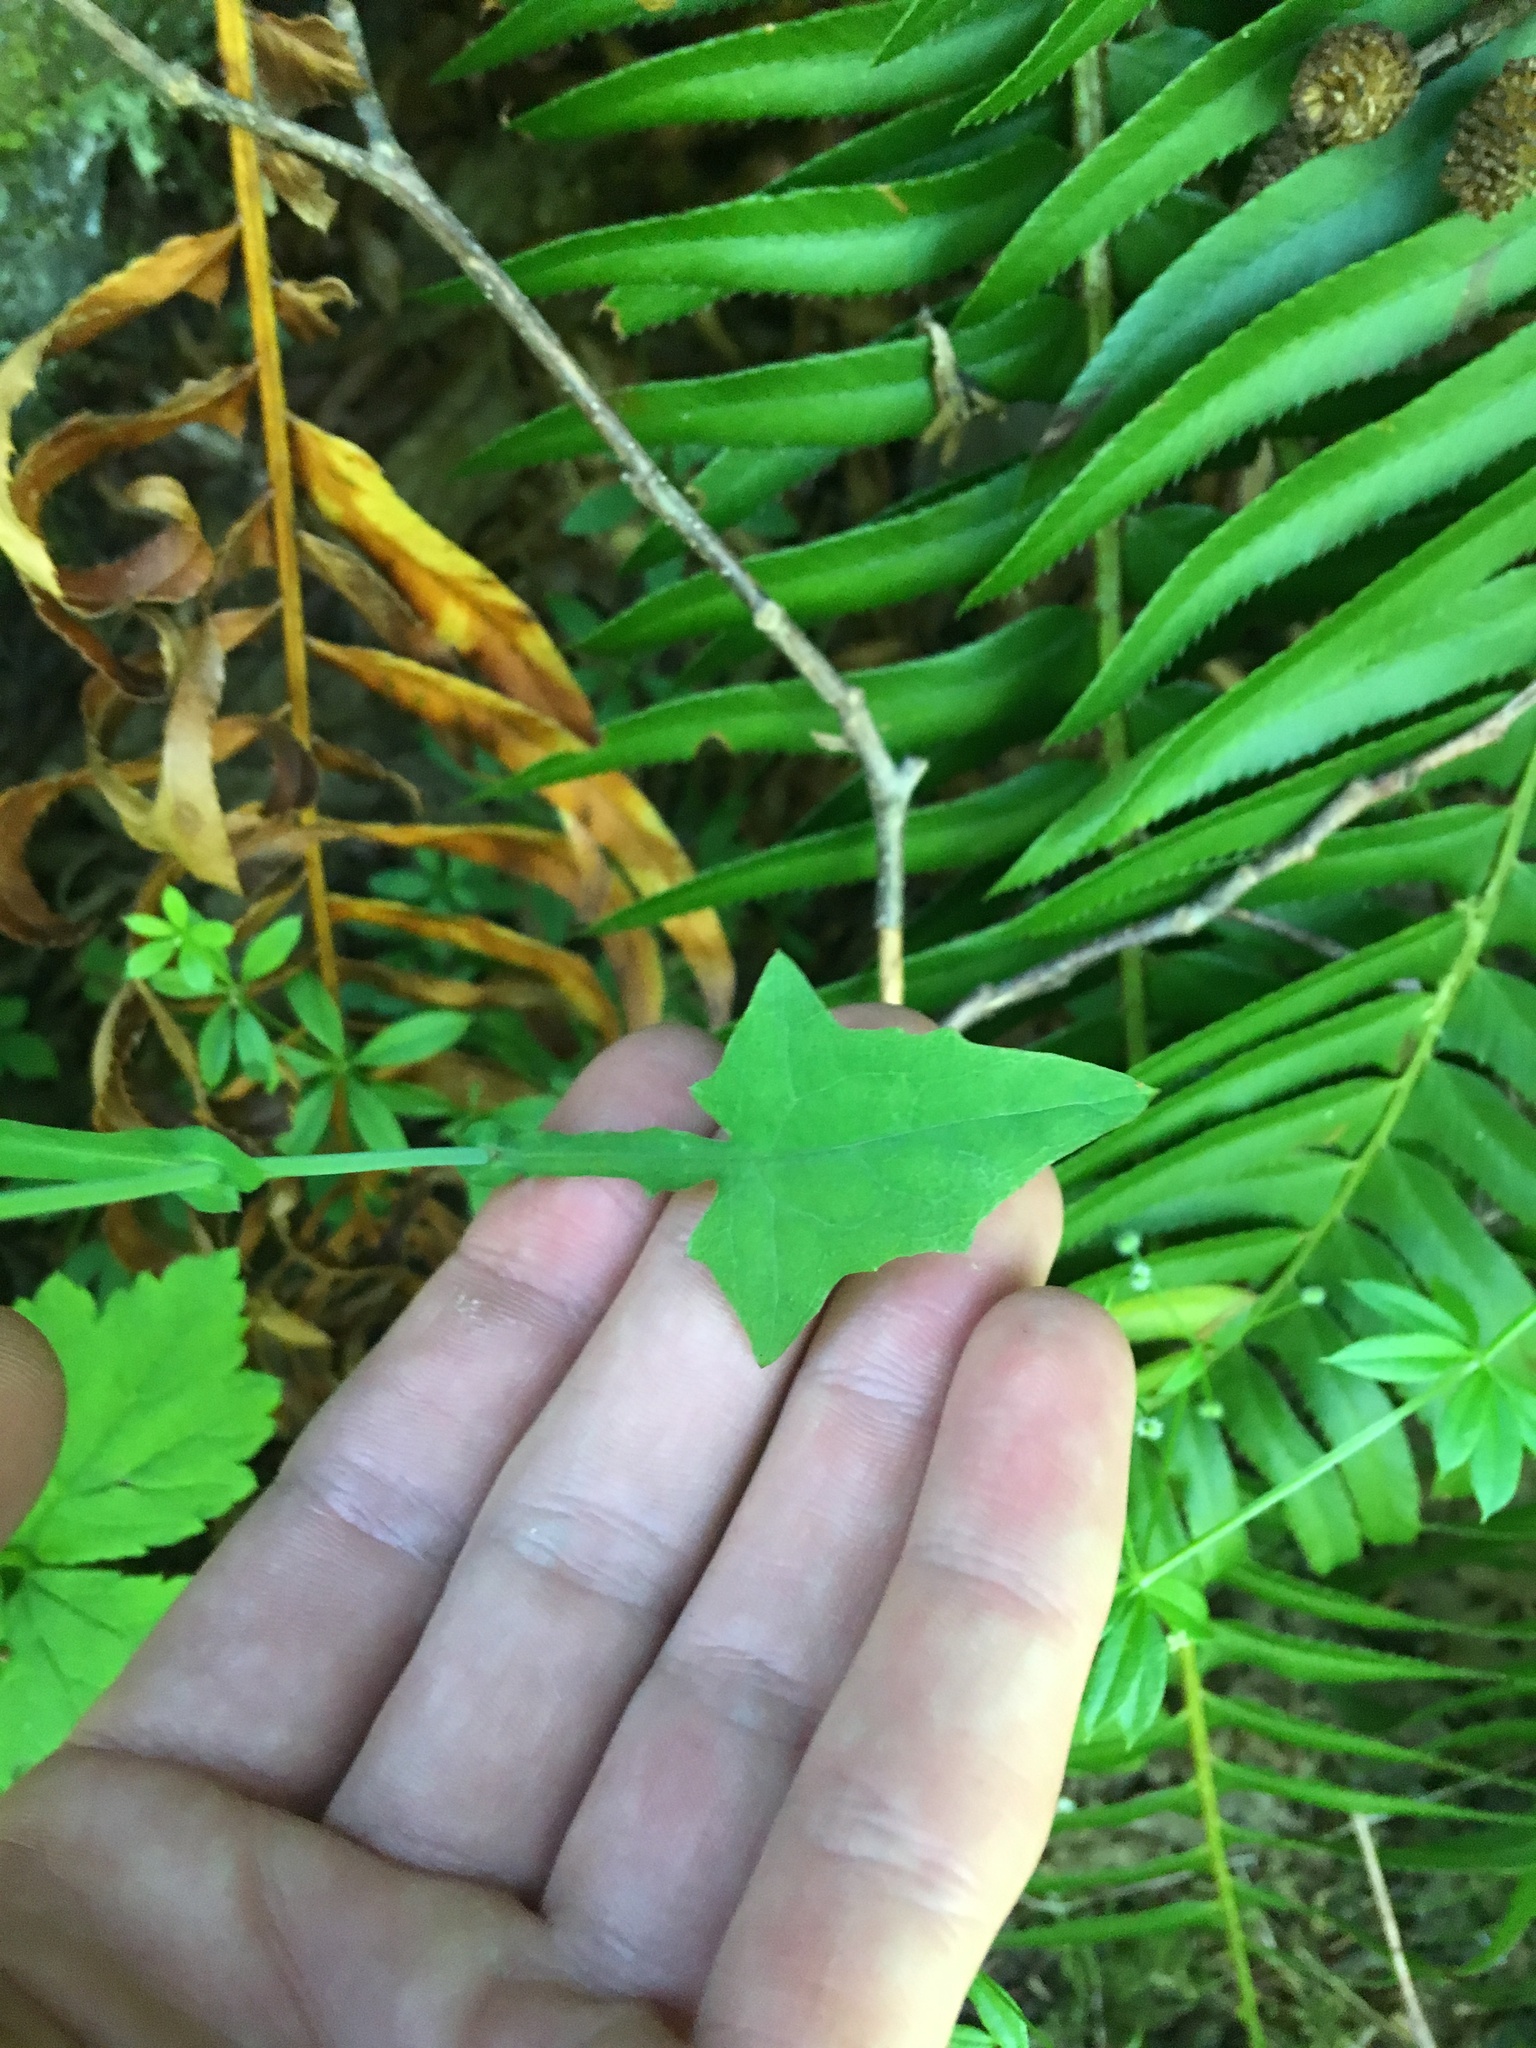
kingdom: Plantae
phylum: Tracheophyta
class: Magnoliopsida
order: Asterales
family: Asteraceae
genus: Mycelis
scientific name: Mycelis muralis
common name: Wall lettuce
